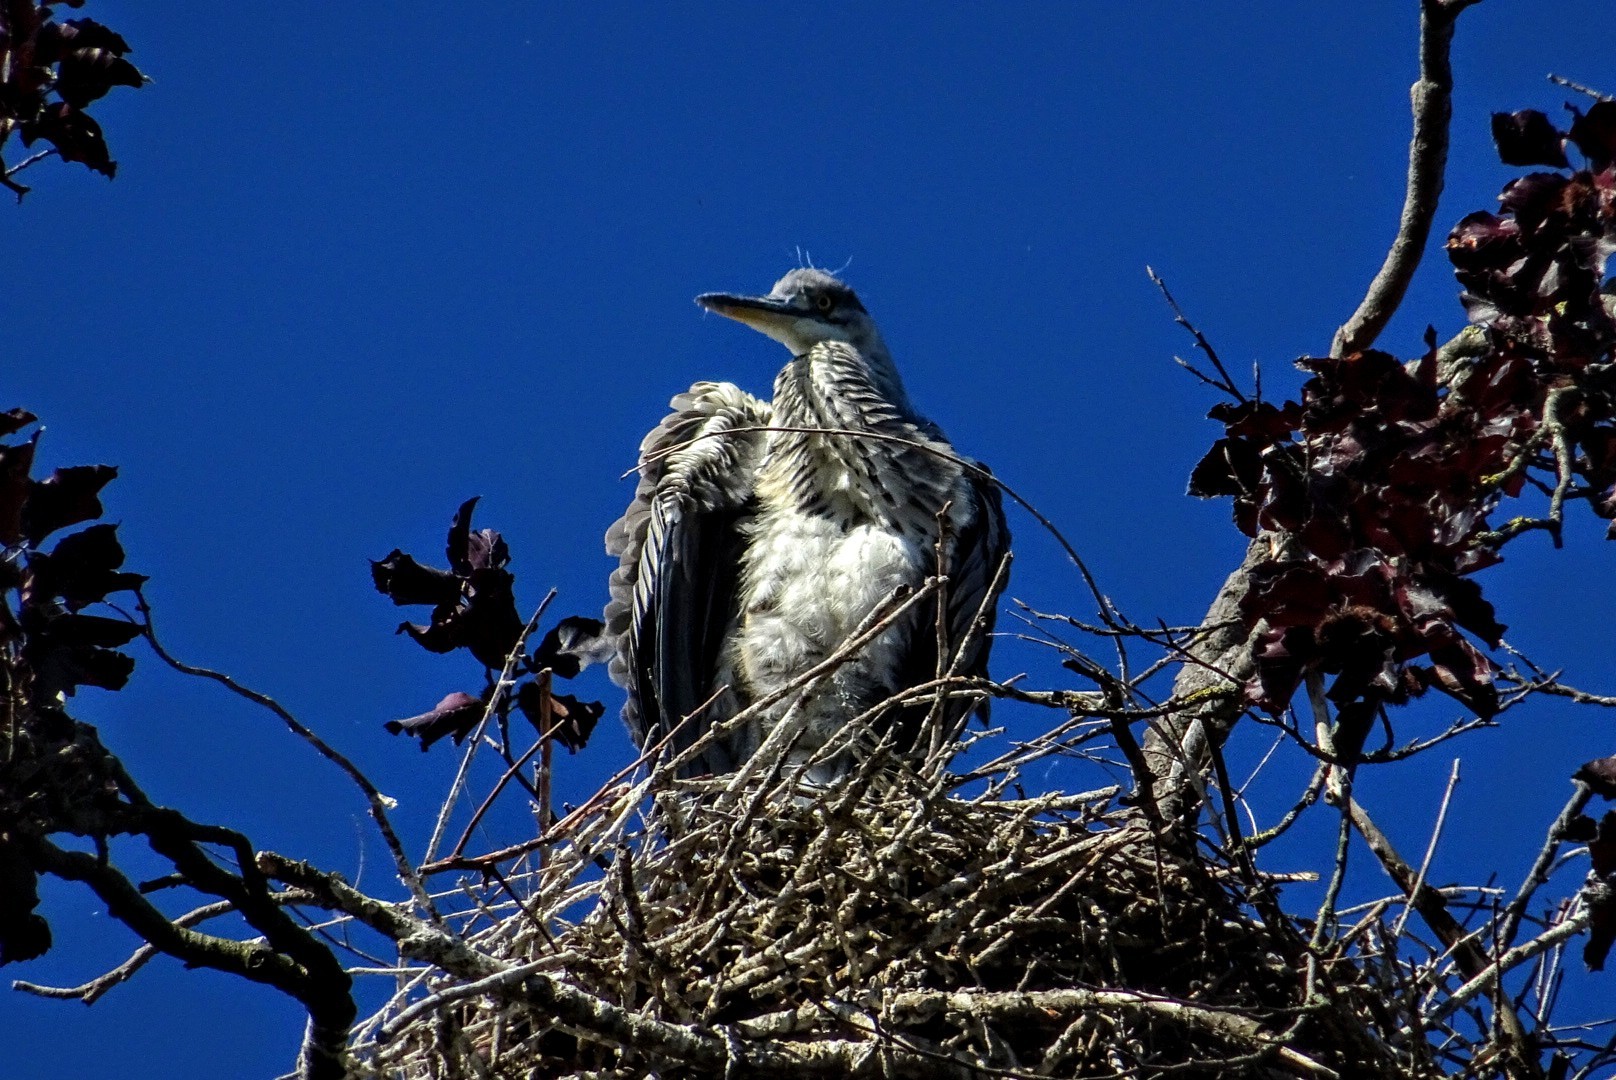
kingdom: Animalia
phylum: Chordata
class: Aves
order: Pelecaniformes
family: Ardeidae
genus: Ardea
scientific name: Ardea cinerea
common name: Grey heron
